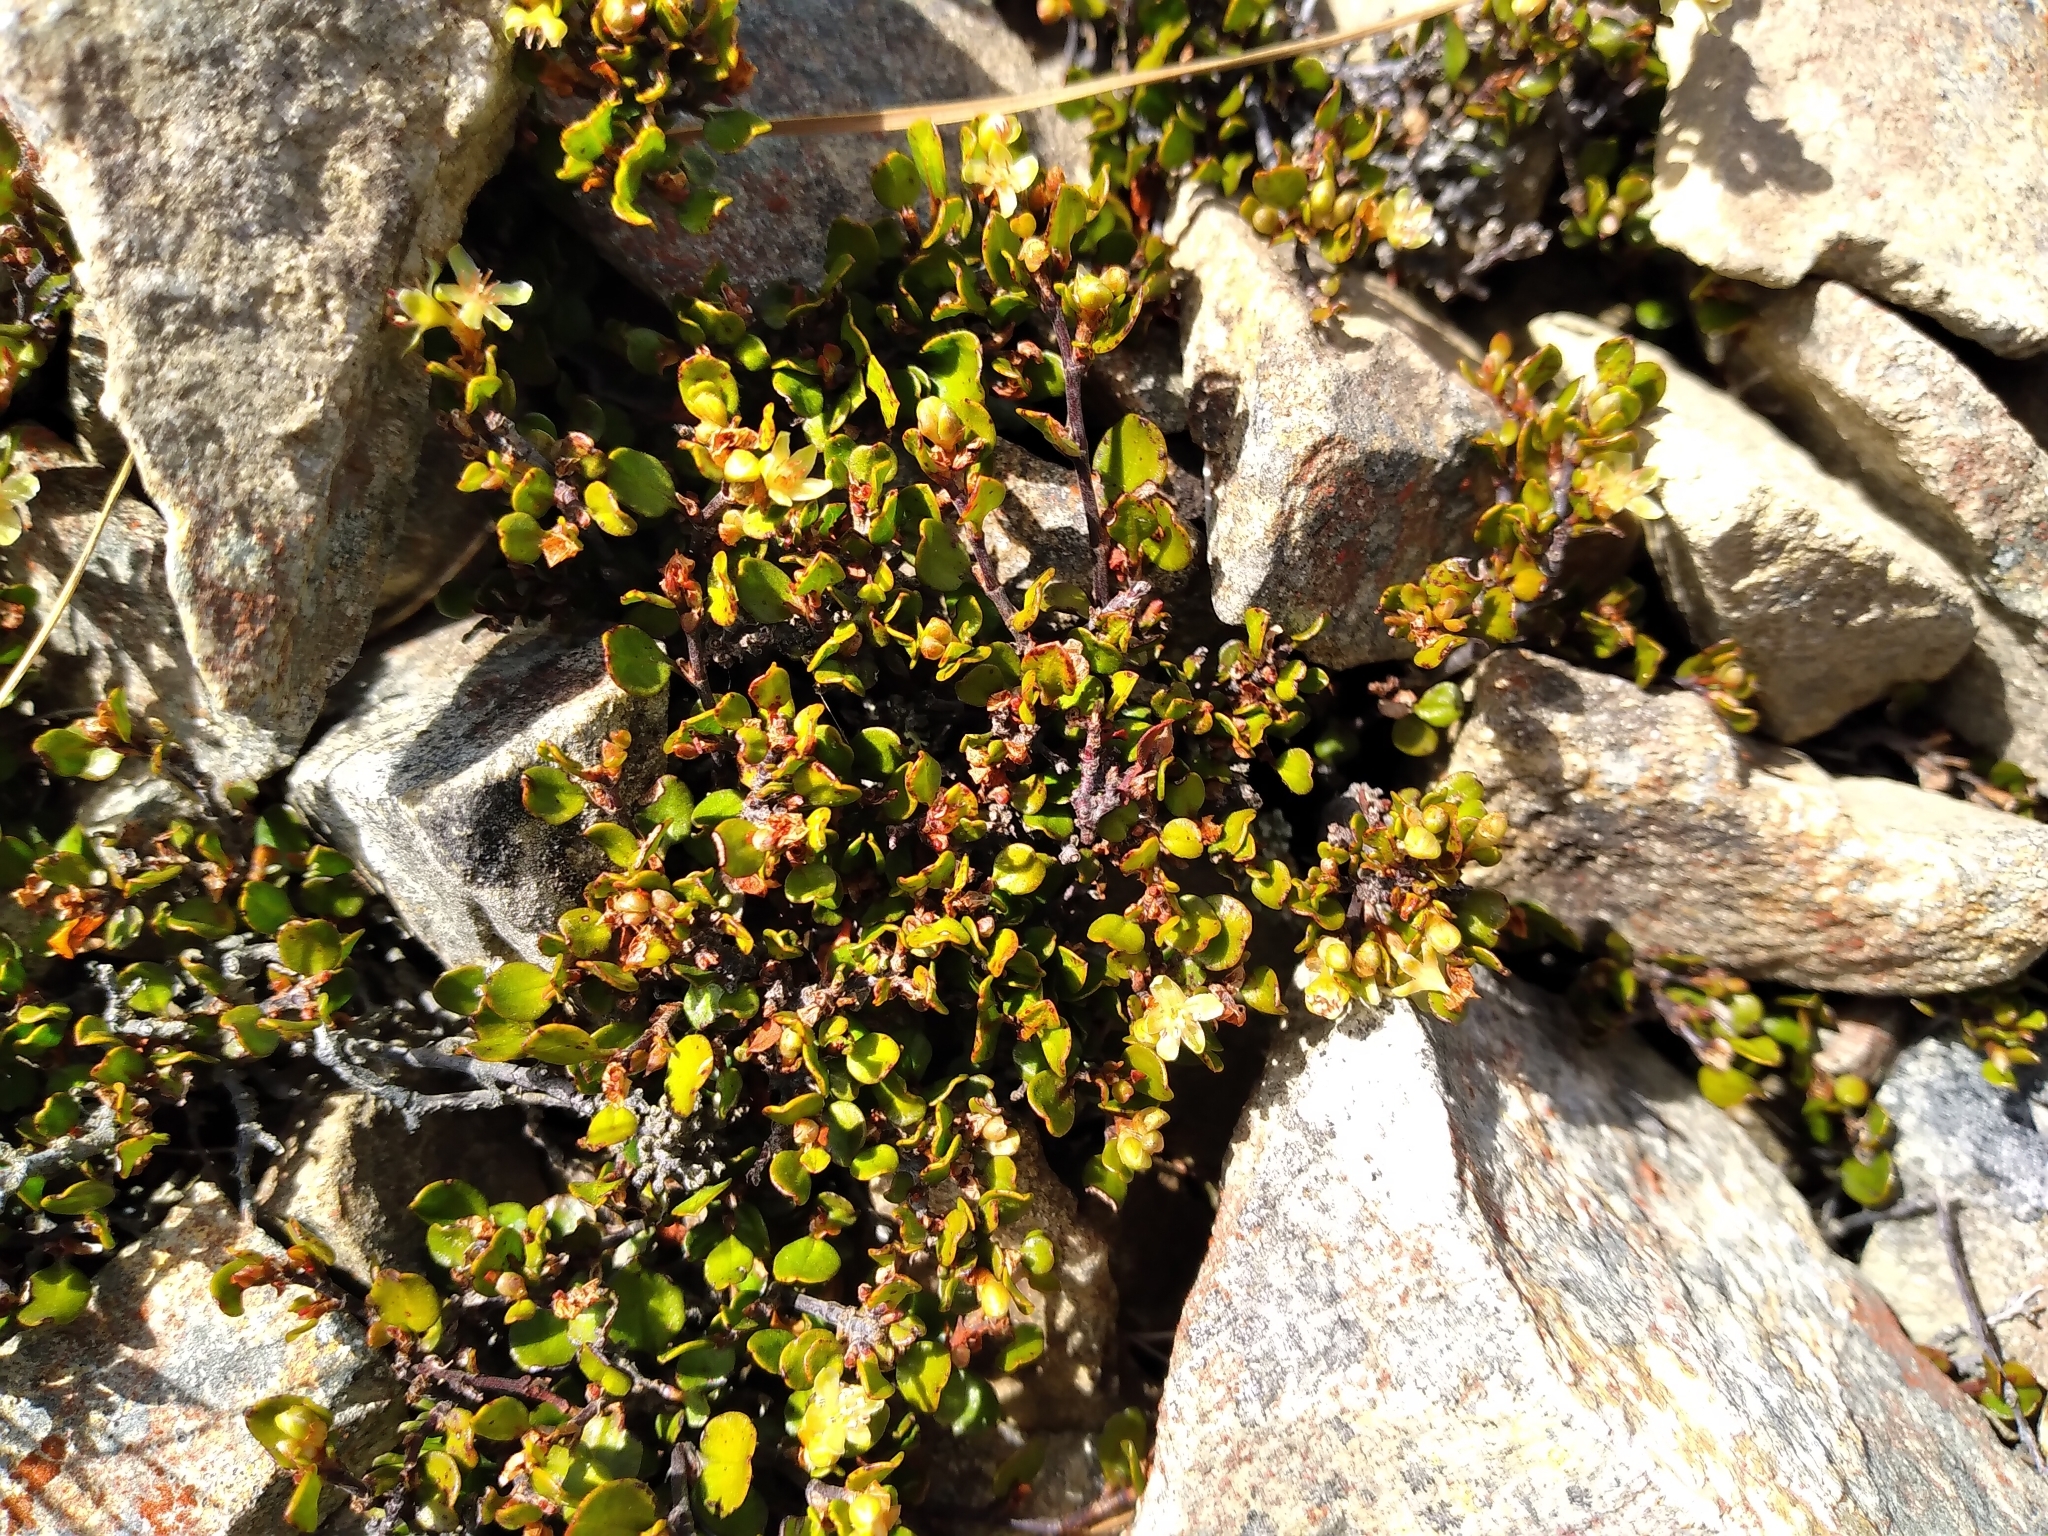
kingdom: Plantae
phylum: Tracheophyta
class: Magnoliopsida
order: Caryophyllales
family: Polygonaceae
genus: Muehlenbeckia
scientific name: Muehlenbeckia axillaris
